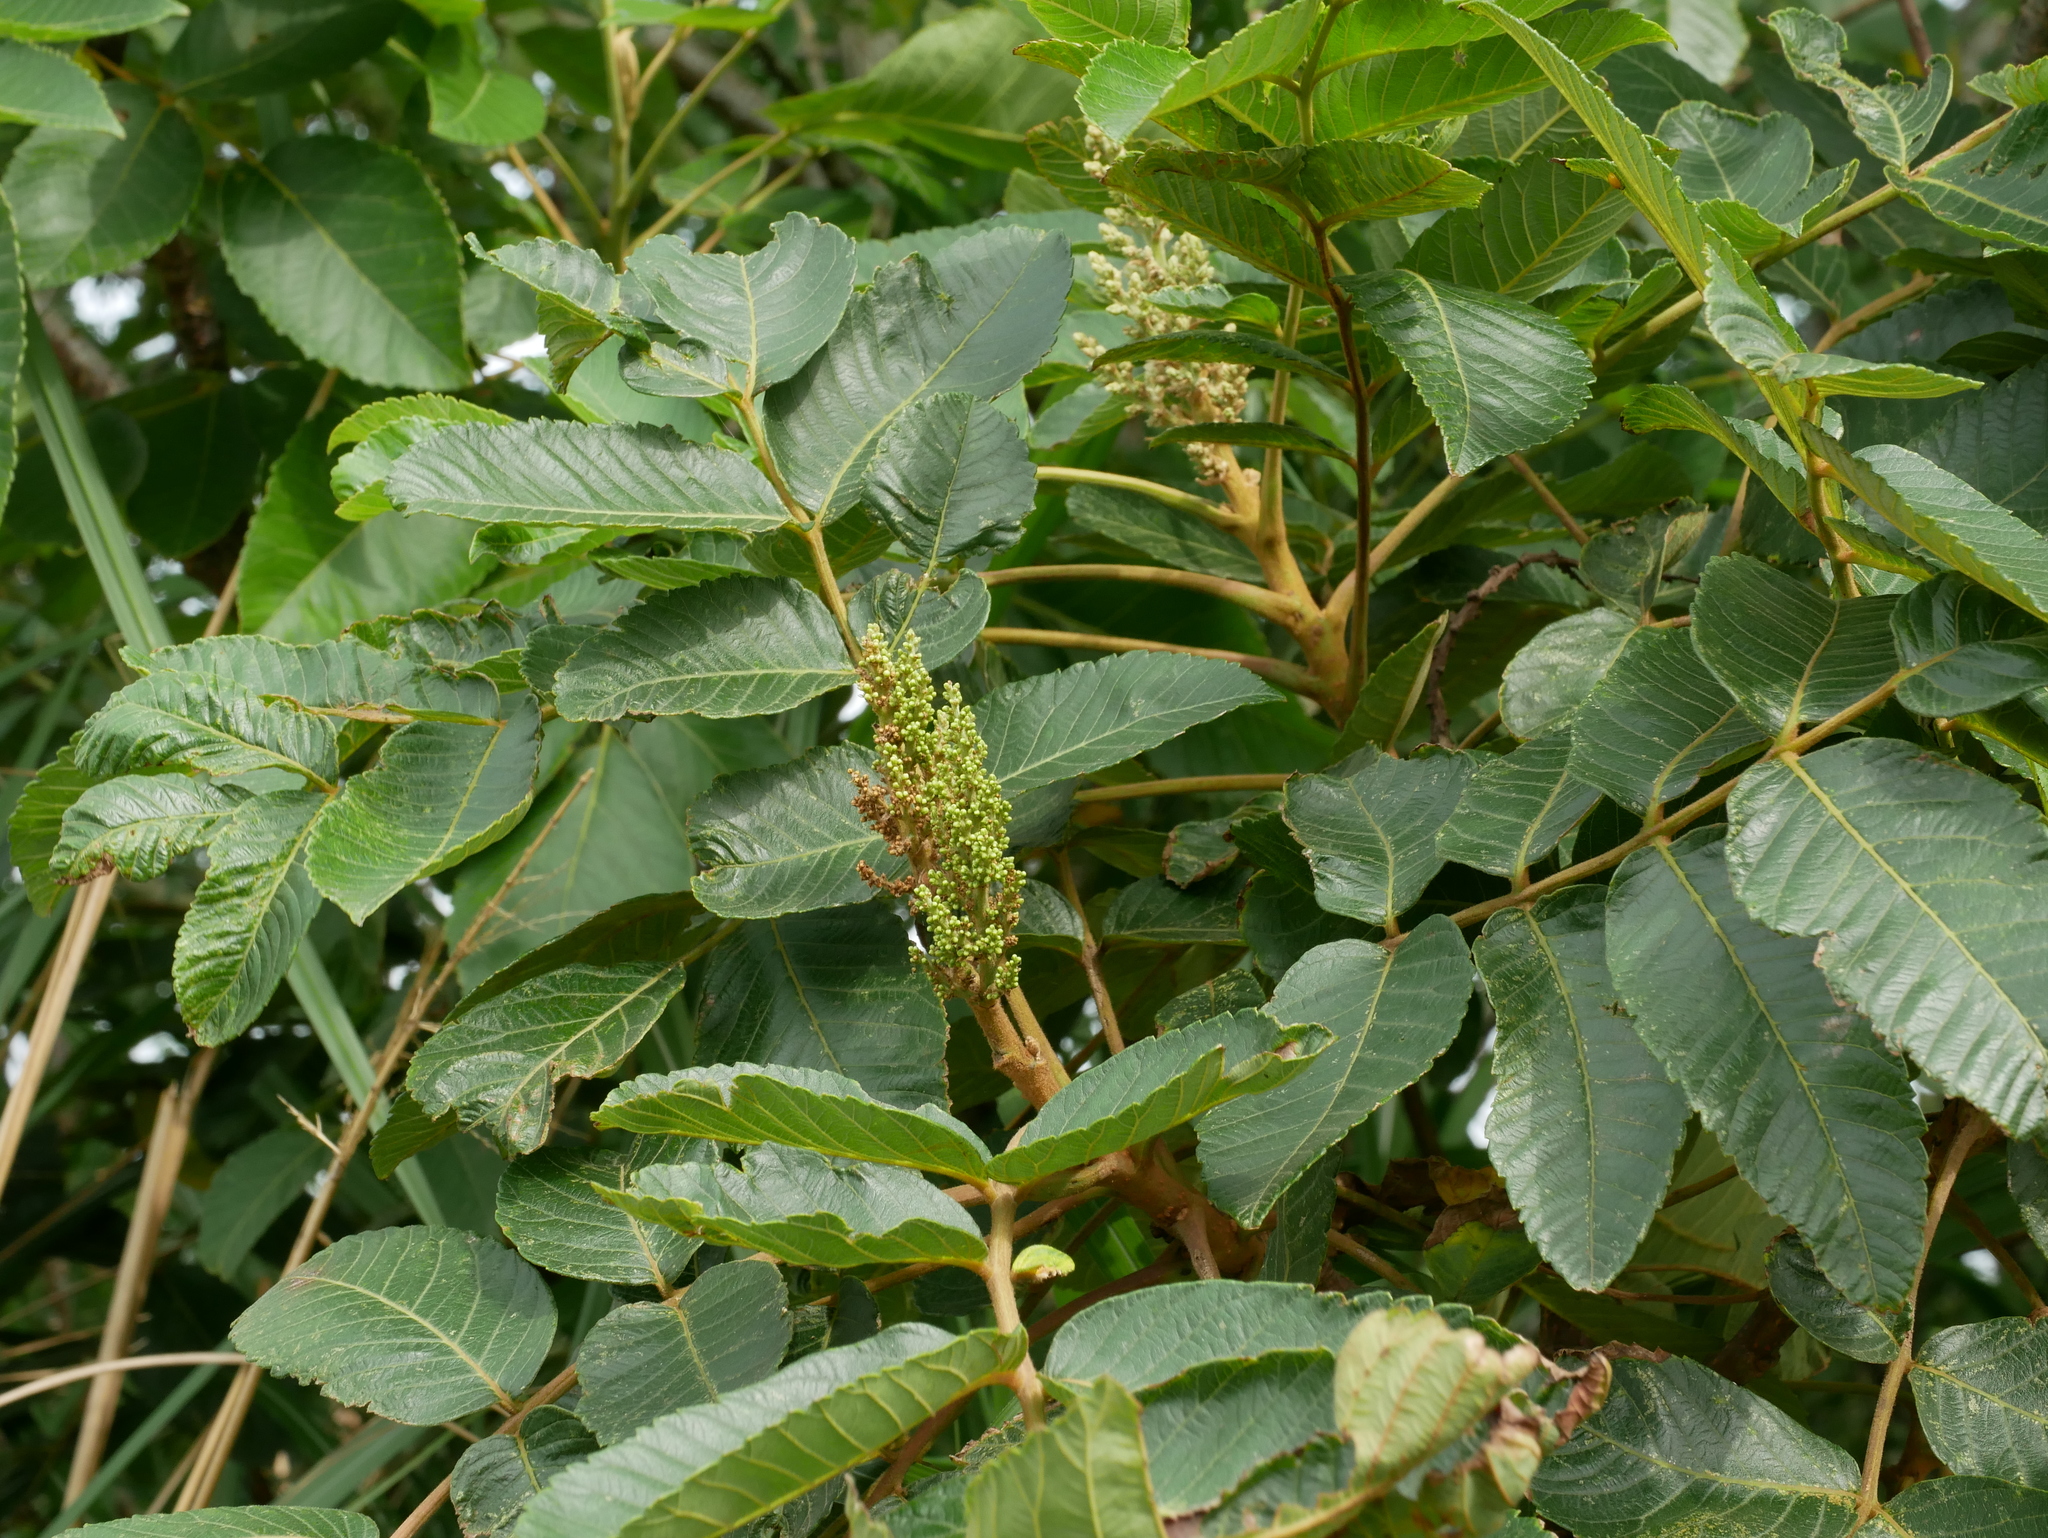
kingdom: Plantae
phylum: Tracheophyta
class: Magnoliopsida
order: Sapindales
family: Anacardiaceae
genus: Rhus
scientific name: Rhus chinensis
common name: Chinese gall
